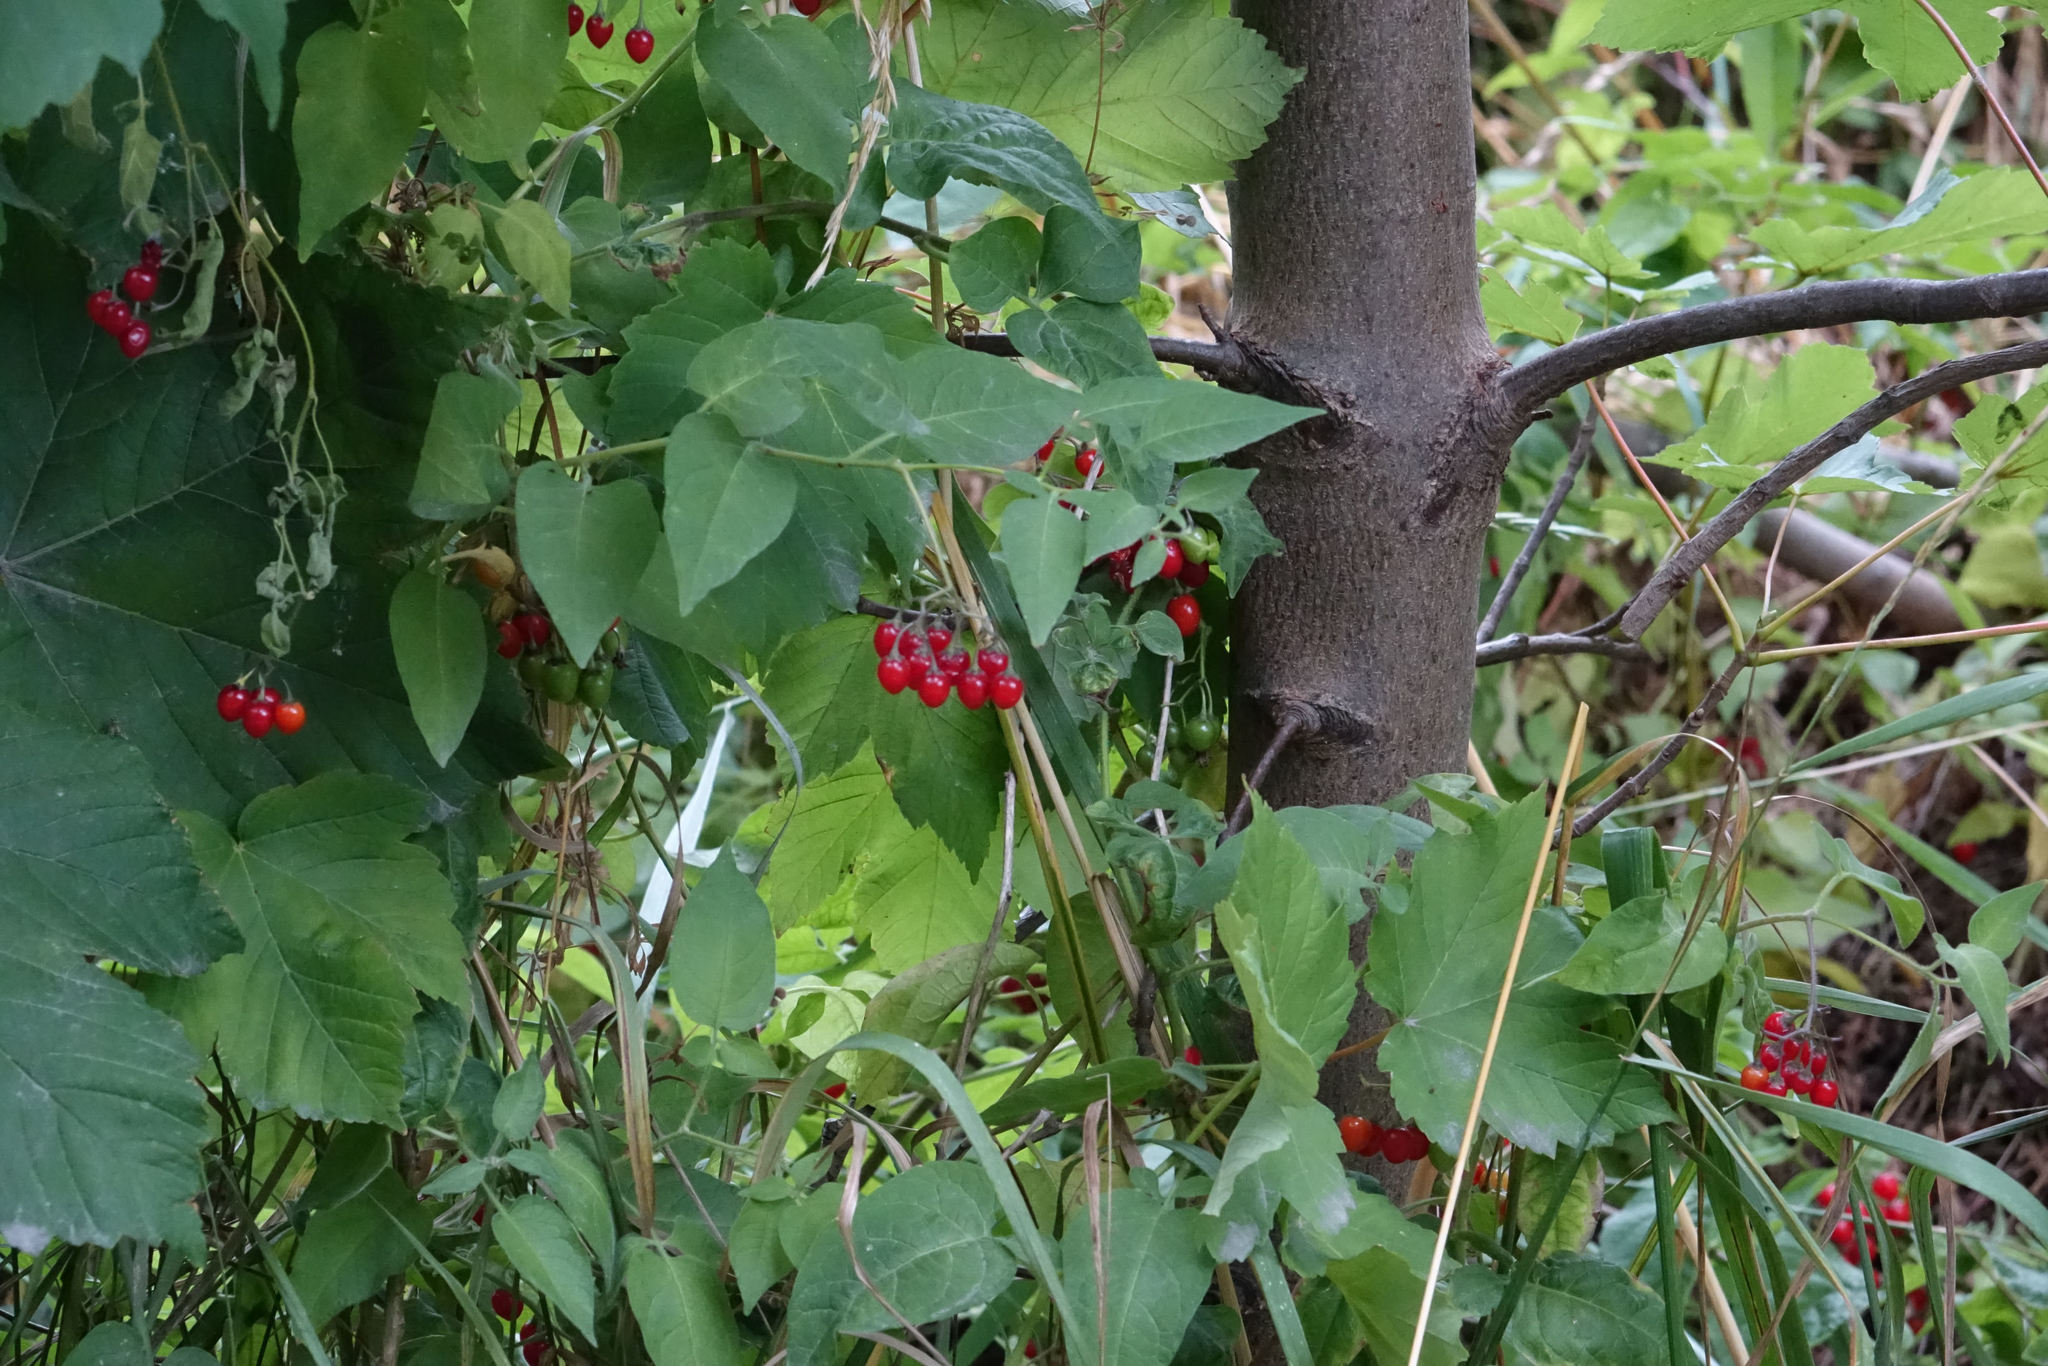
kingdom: Plantae
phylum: Tracheophyta
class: Magnoliopsida
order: Solanales
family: Solanaceae
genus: Solanum
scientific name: Solanum dulcamara
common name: Climbing nightshade
